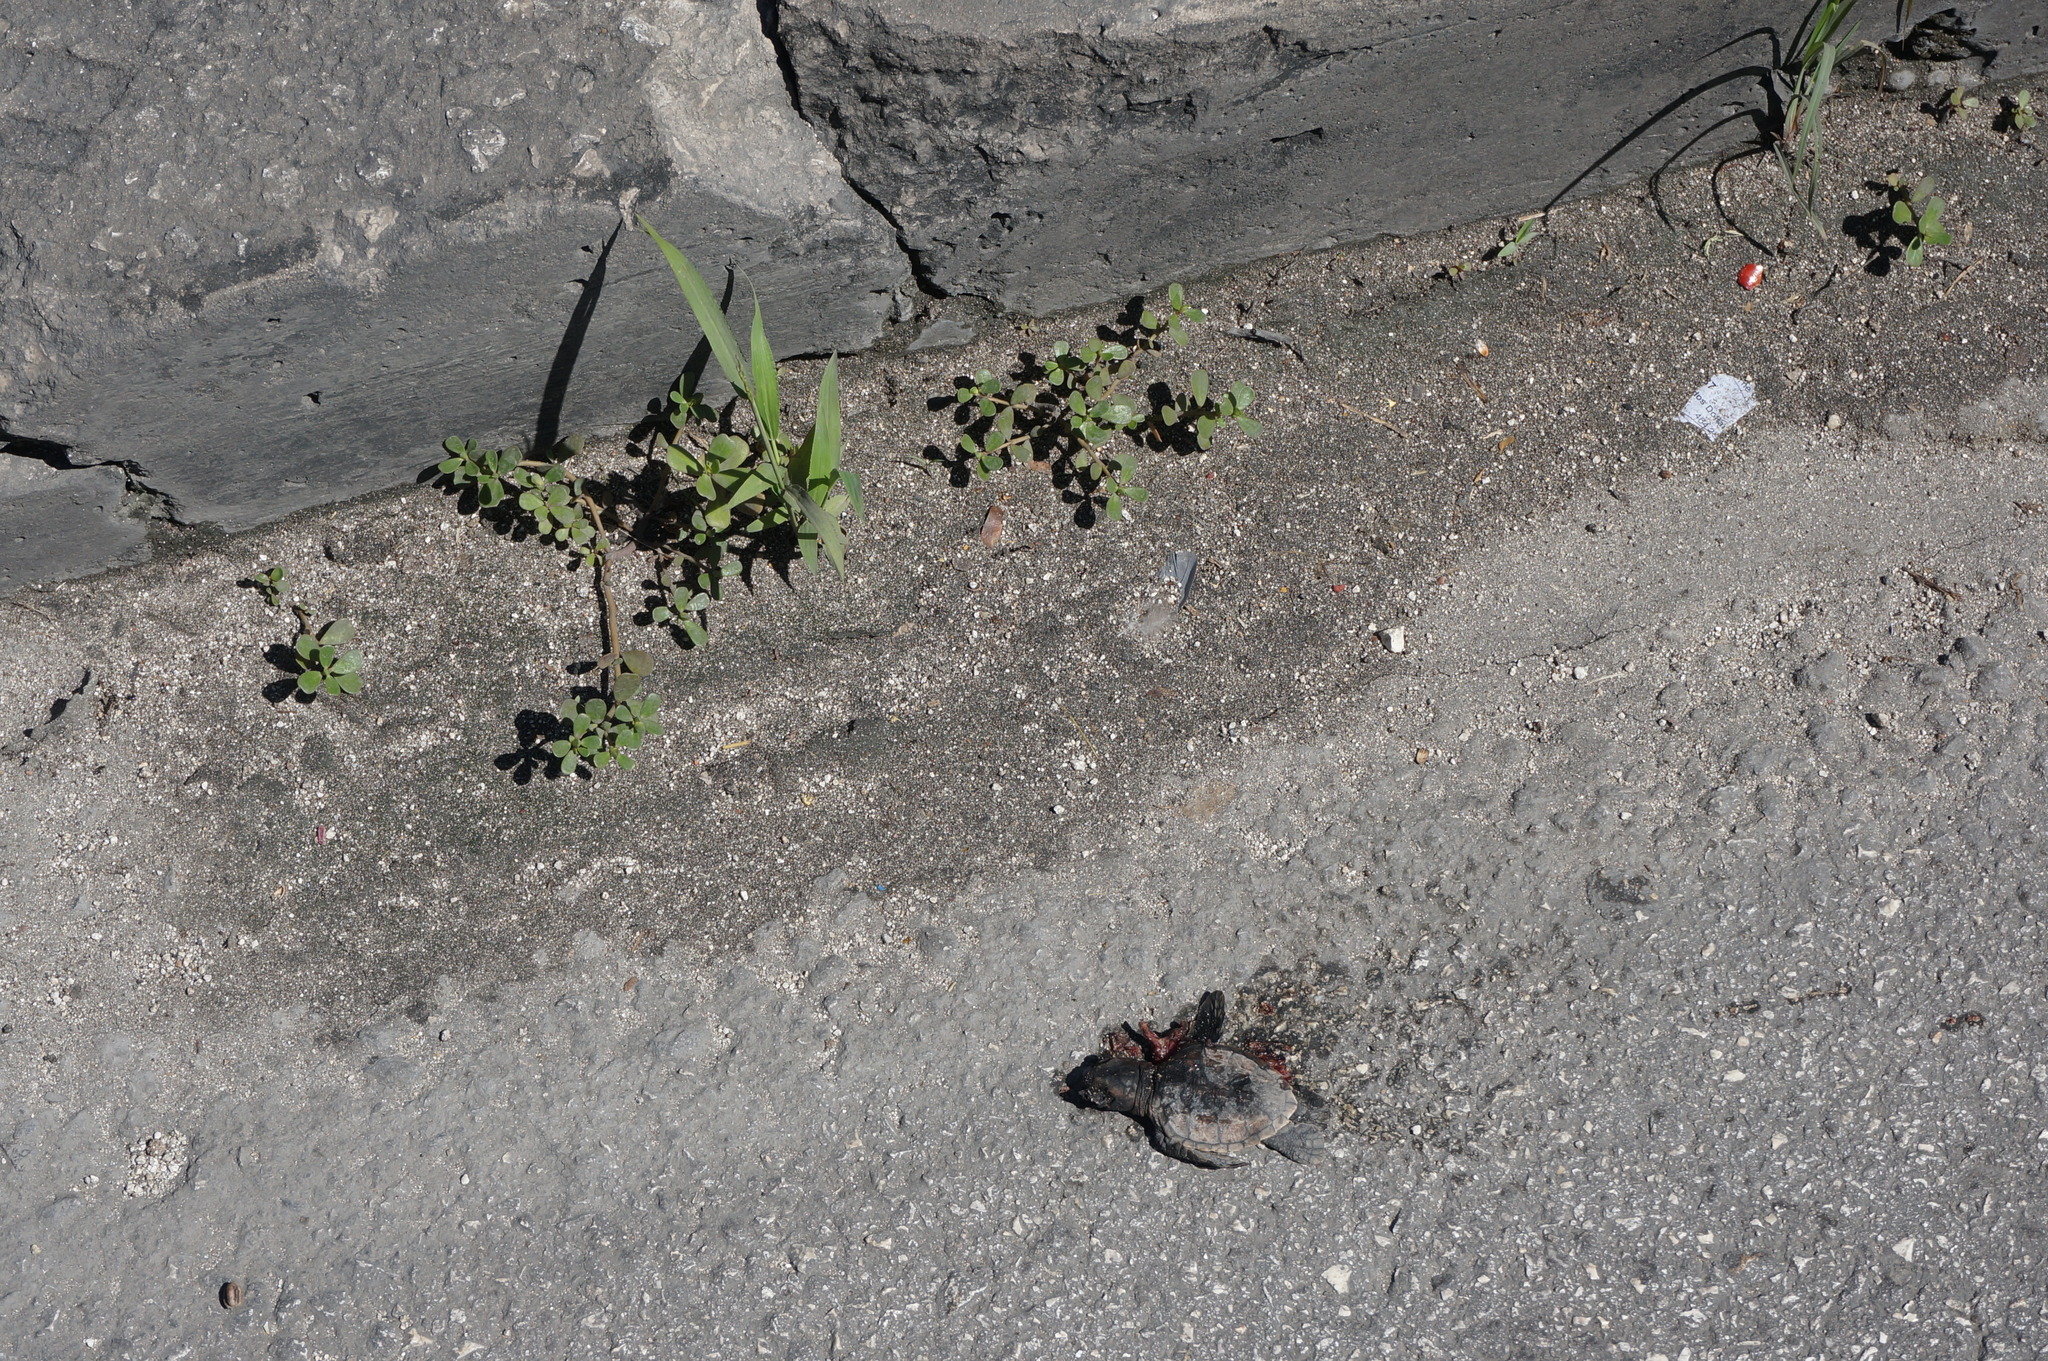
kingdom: Animalia
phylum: Chordata
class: Testudines
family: Cheloniidae
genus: Eretmochelys
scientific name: Eretmochelys imbricata
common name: Hawksbill turtle
